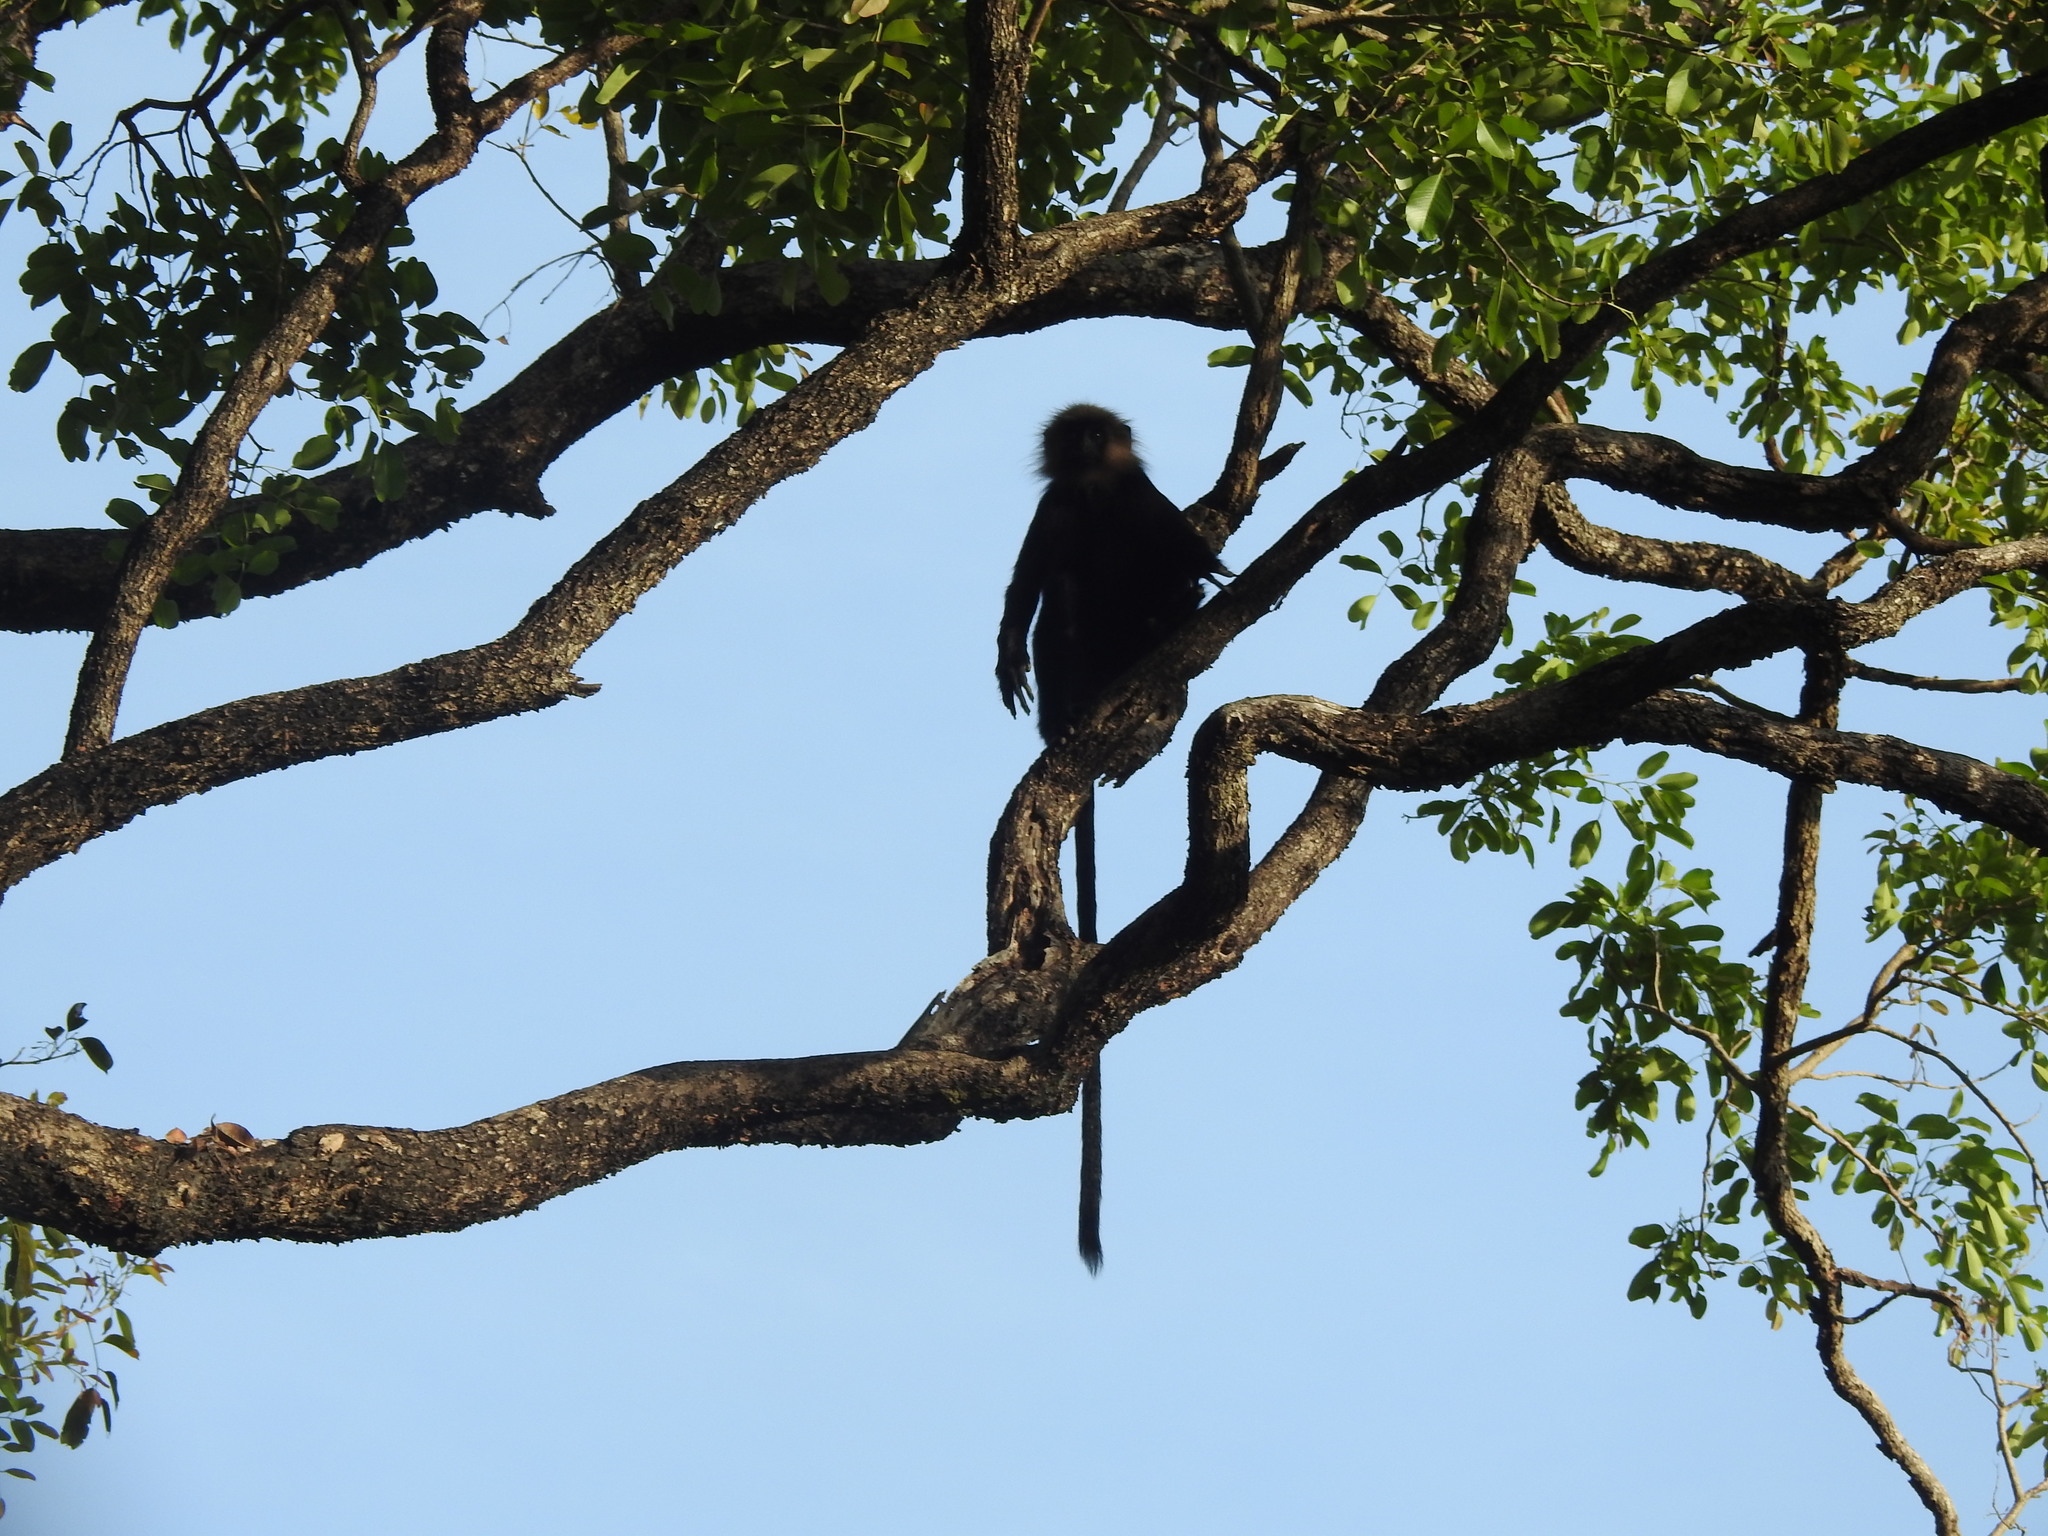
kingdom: Animalia
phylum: Chordata
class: Mammalia
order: Primates
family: Cercopithecidae
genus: Semnopithecus
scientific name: Semnopithecus johnii
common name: Nilgiri langur
